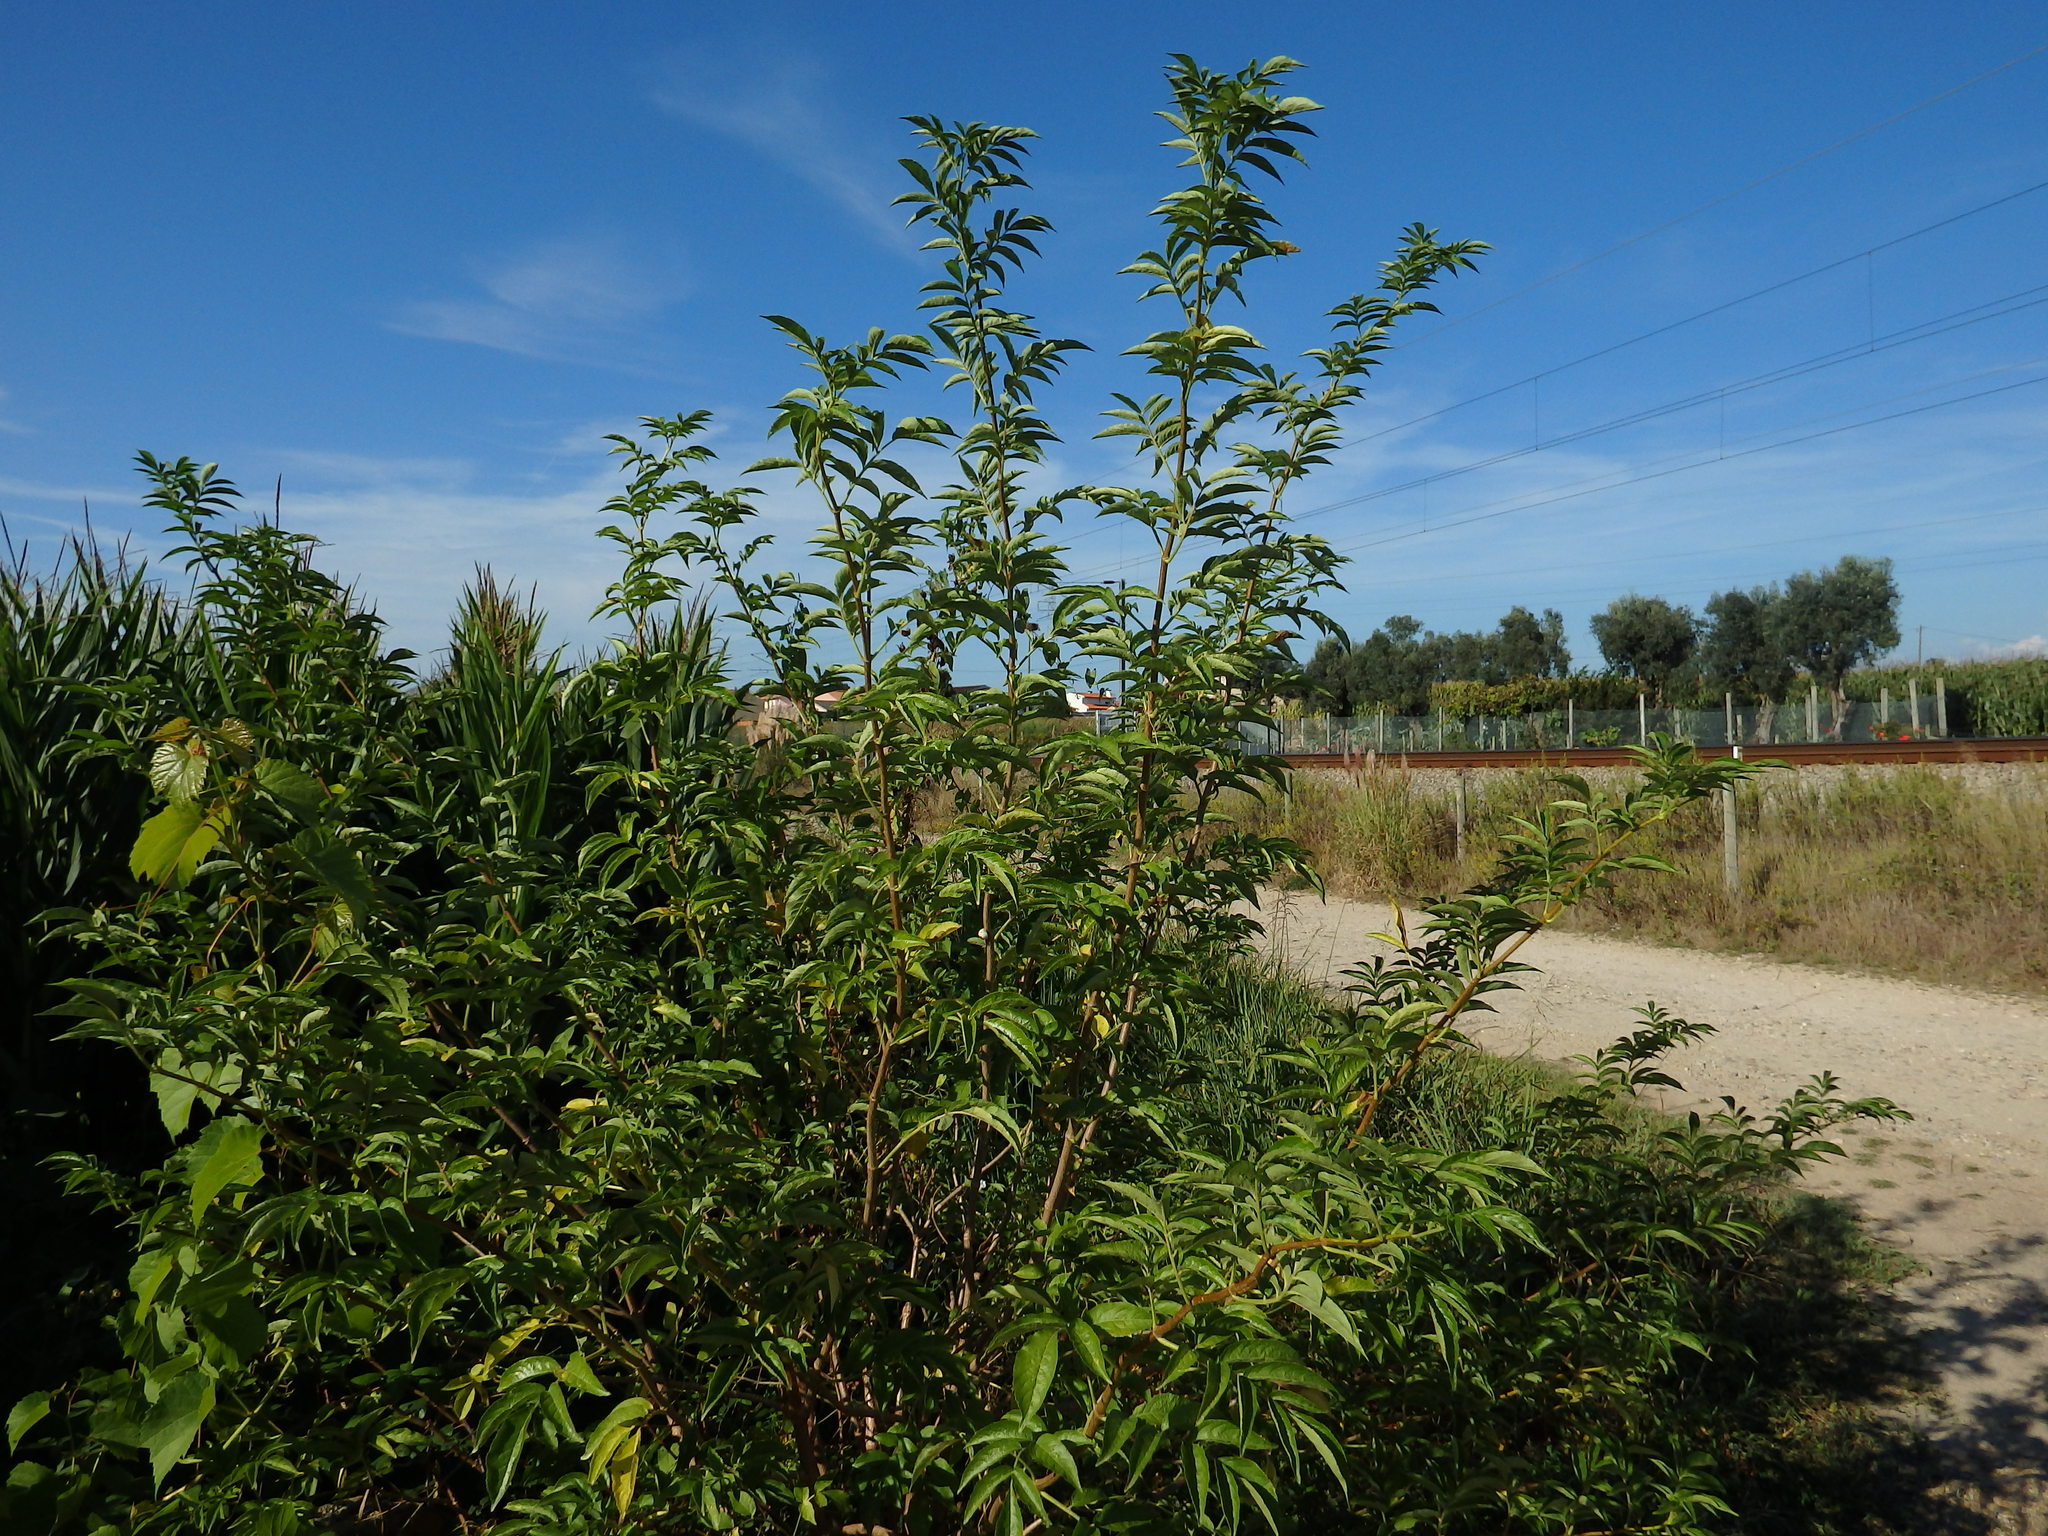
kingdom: Plantae
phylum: Tracheophyta
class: Magnoliopsida
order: Dipsacales
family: Viburnaceae
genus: Sambucus
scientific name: Sambucus nigra
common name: Elder
